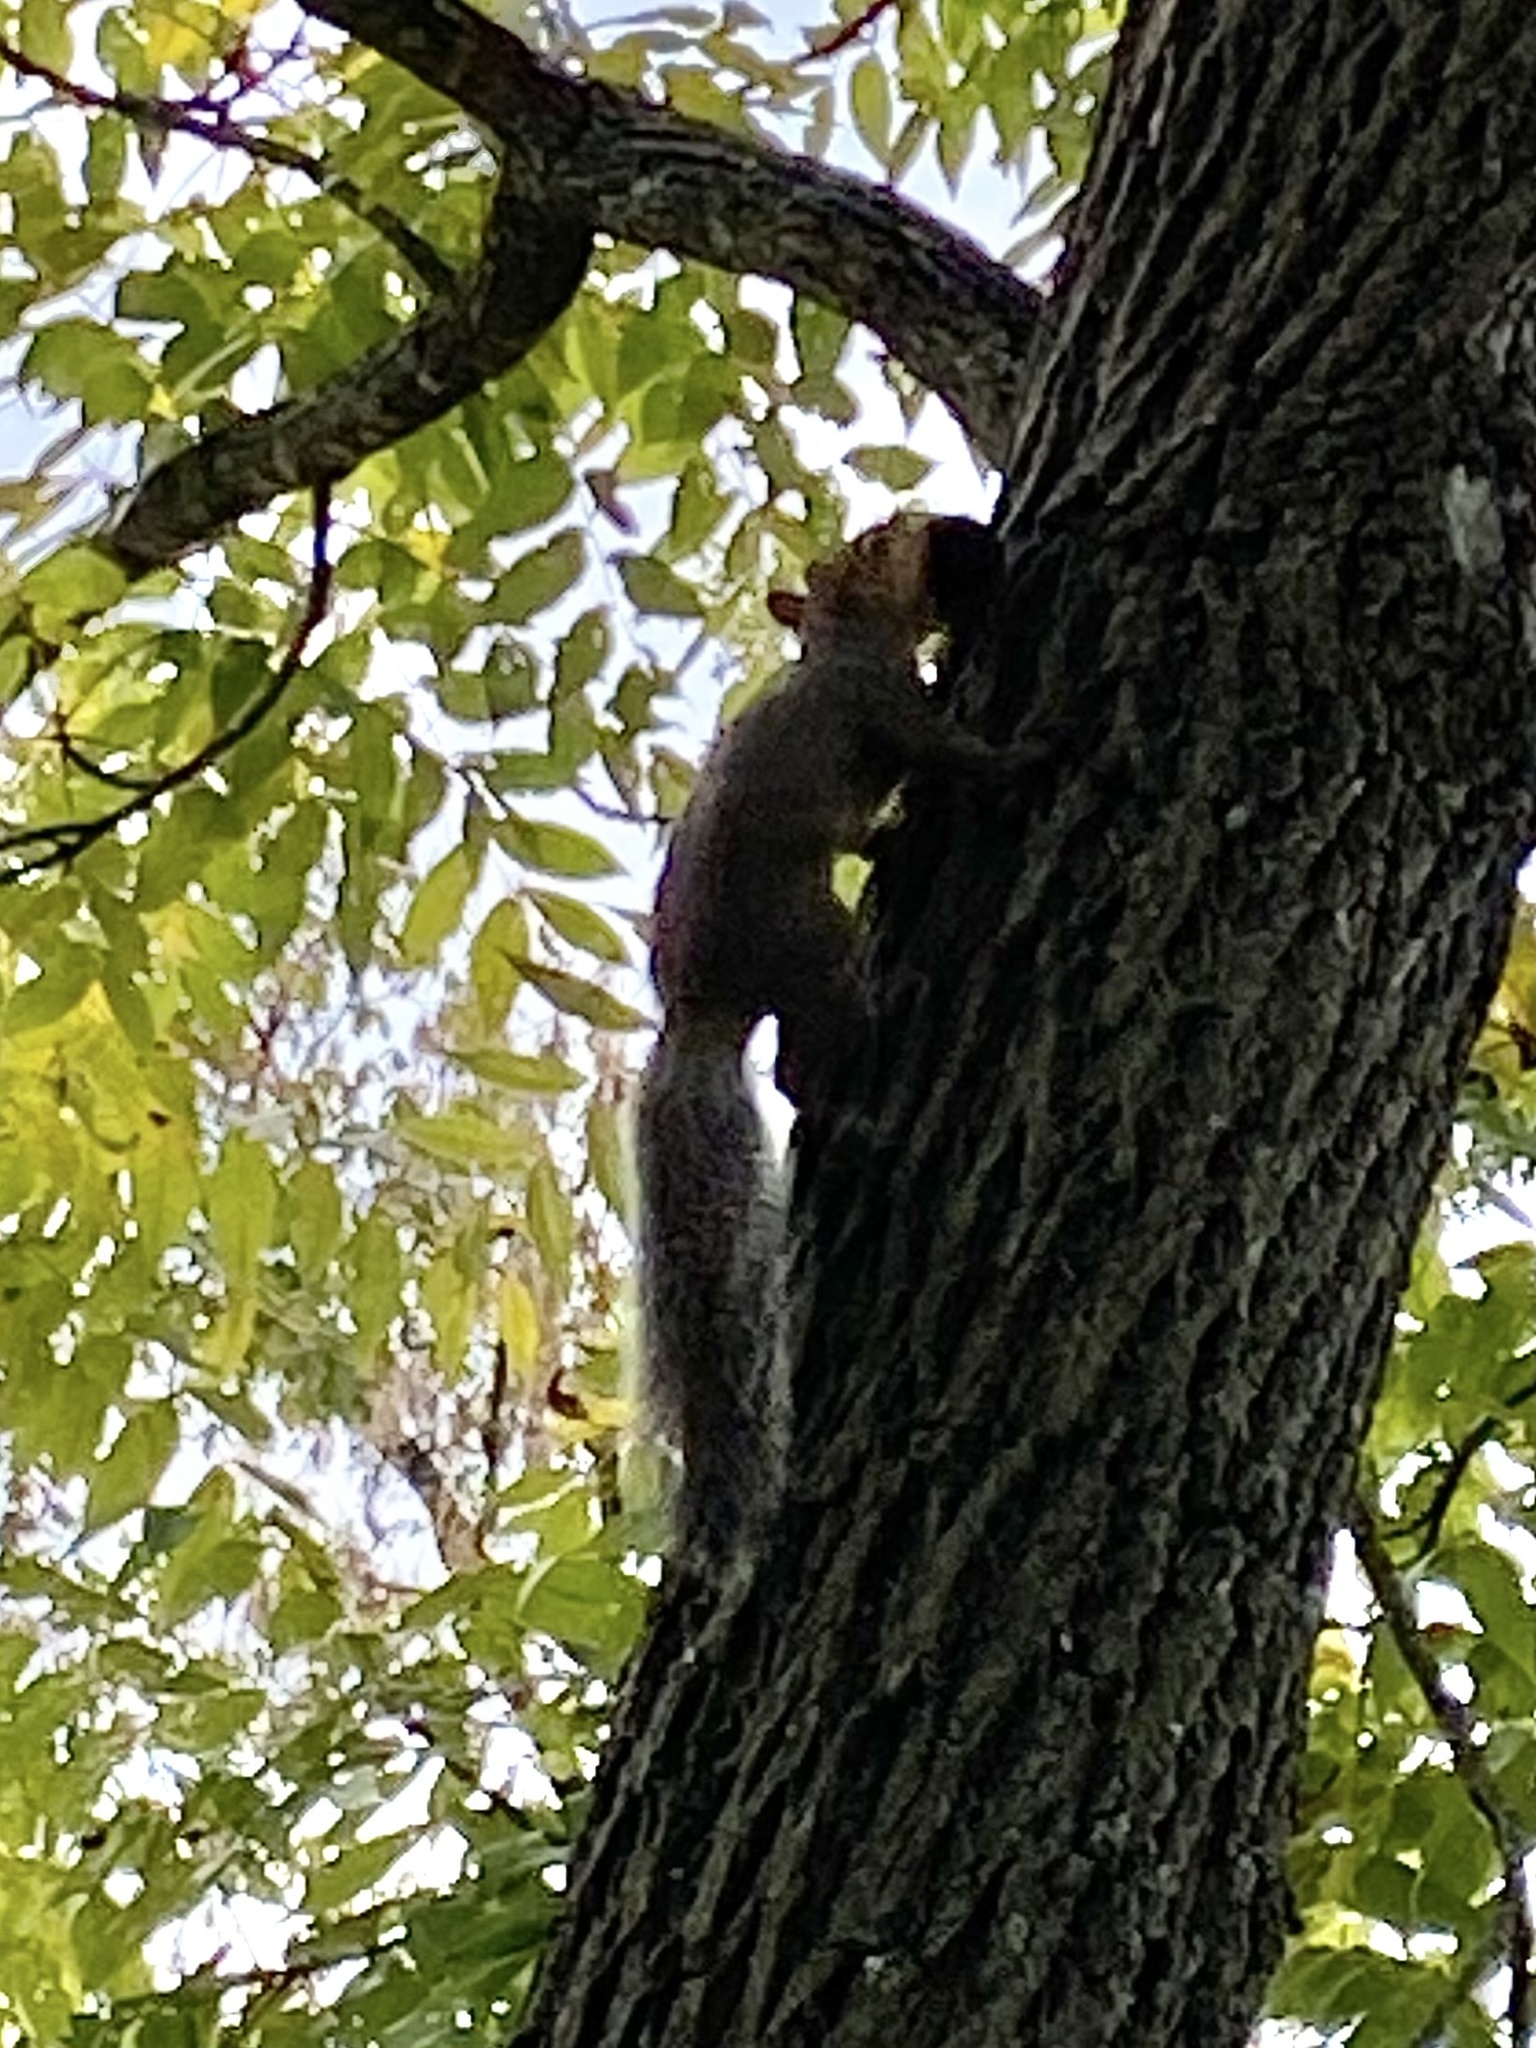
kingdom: Animalia
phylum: Chordata
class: Mammalia
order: Rodentia
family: Sciuridae
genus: Sciurus
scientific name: Sciurus carolinensis
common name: Eastern gray squirrel
